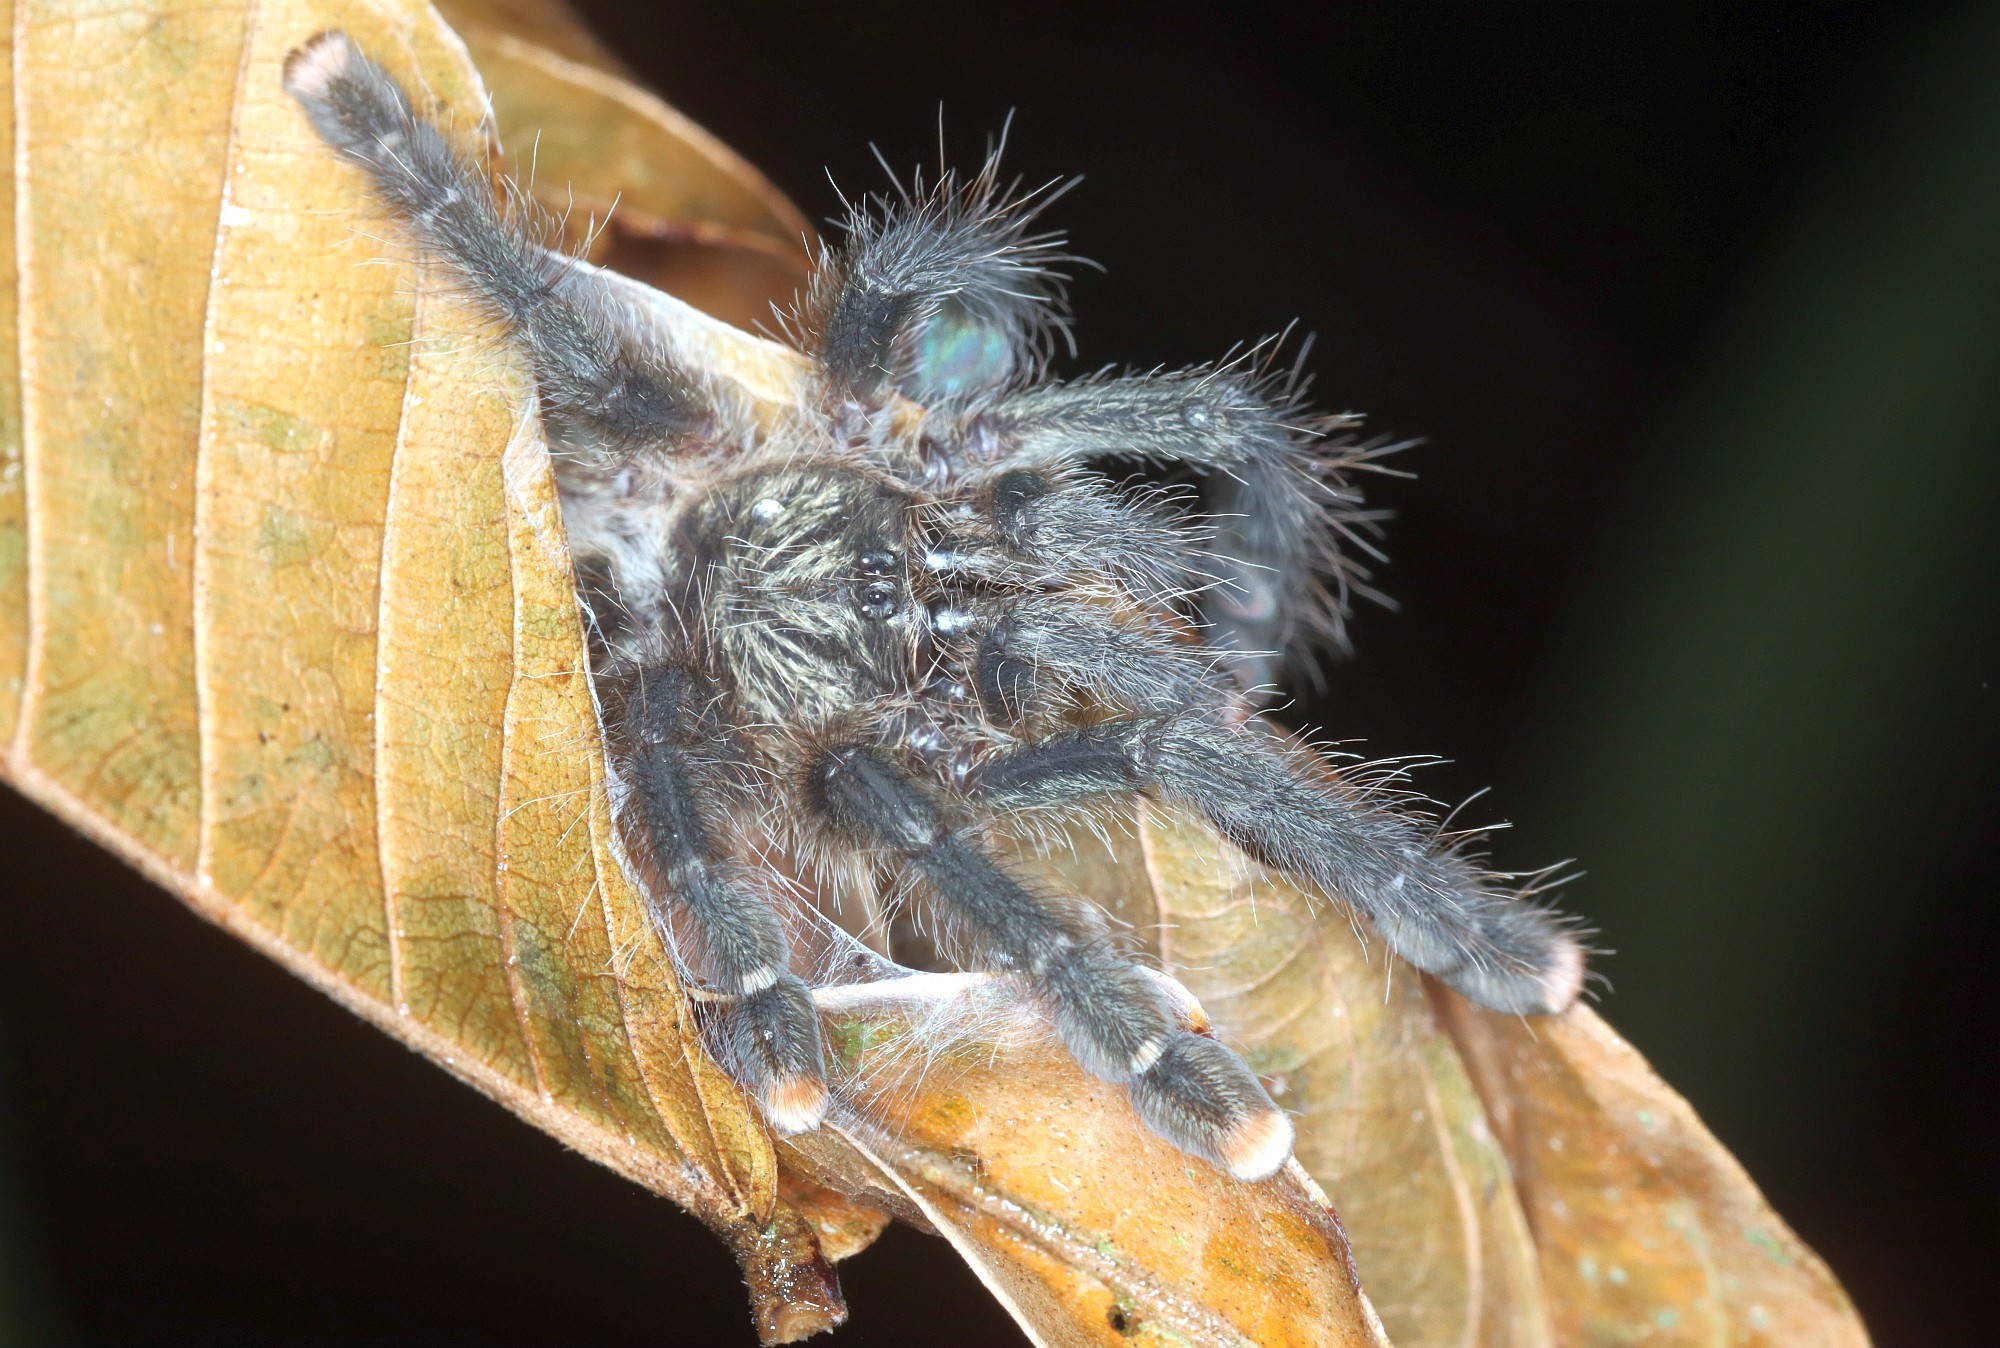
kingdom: Animalia
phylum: Arthropoda
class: Arachnida
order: Araneae
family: Theraphosidae
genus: Avicularia
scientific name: Avicularia juruensis
